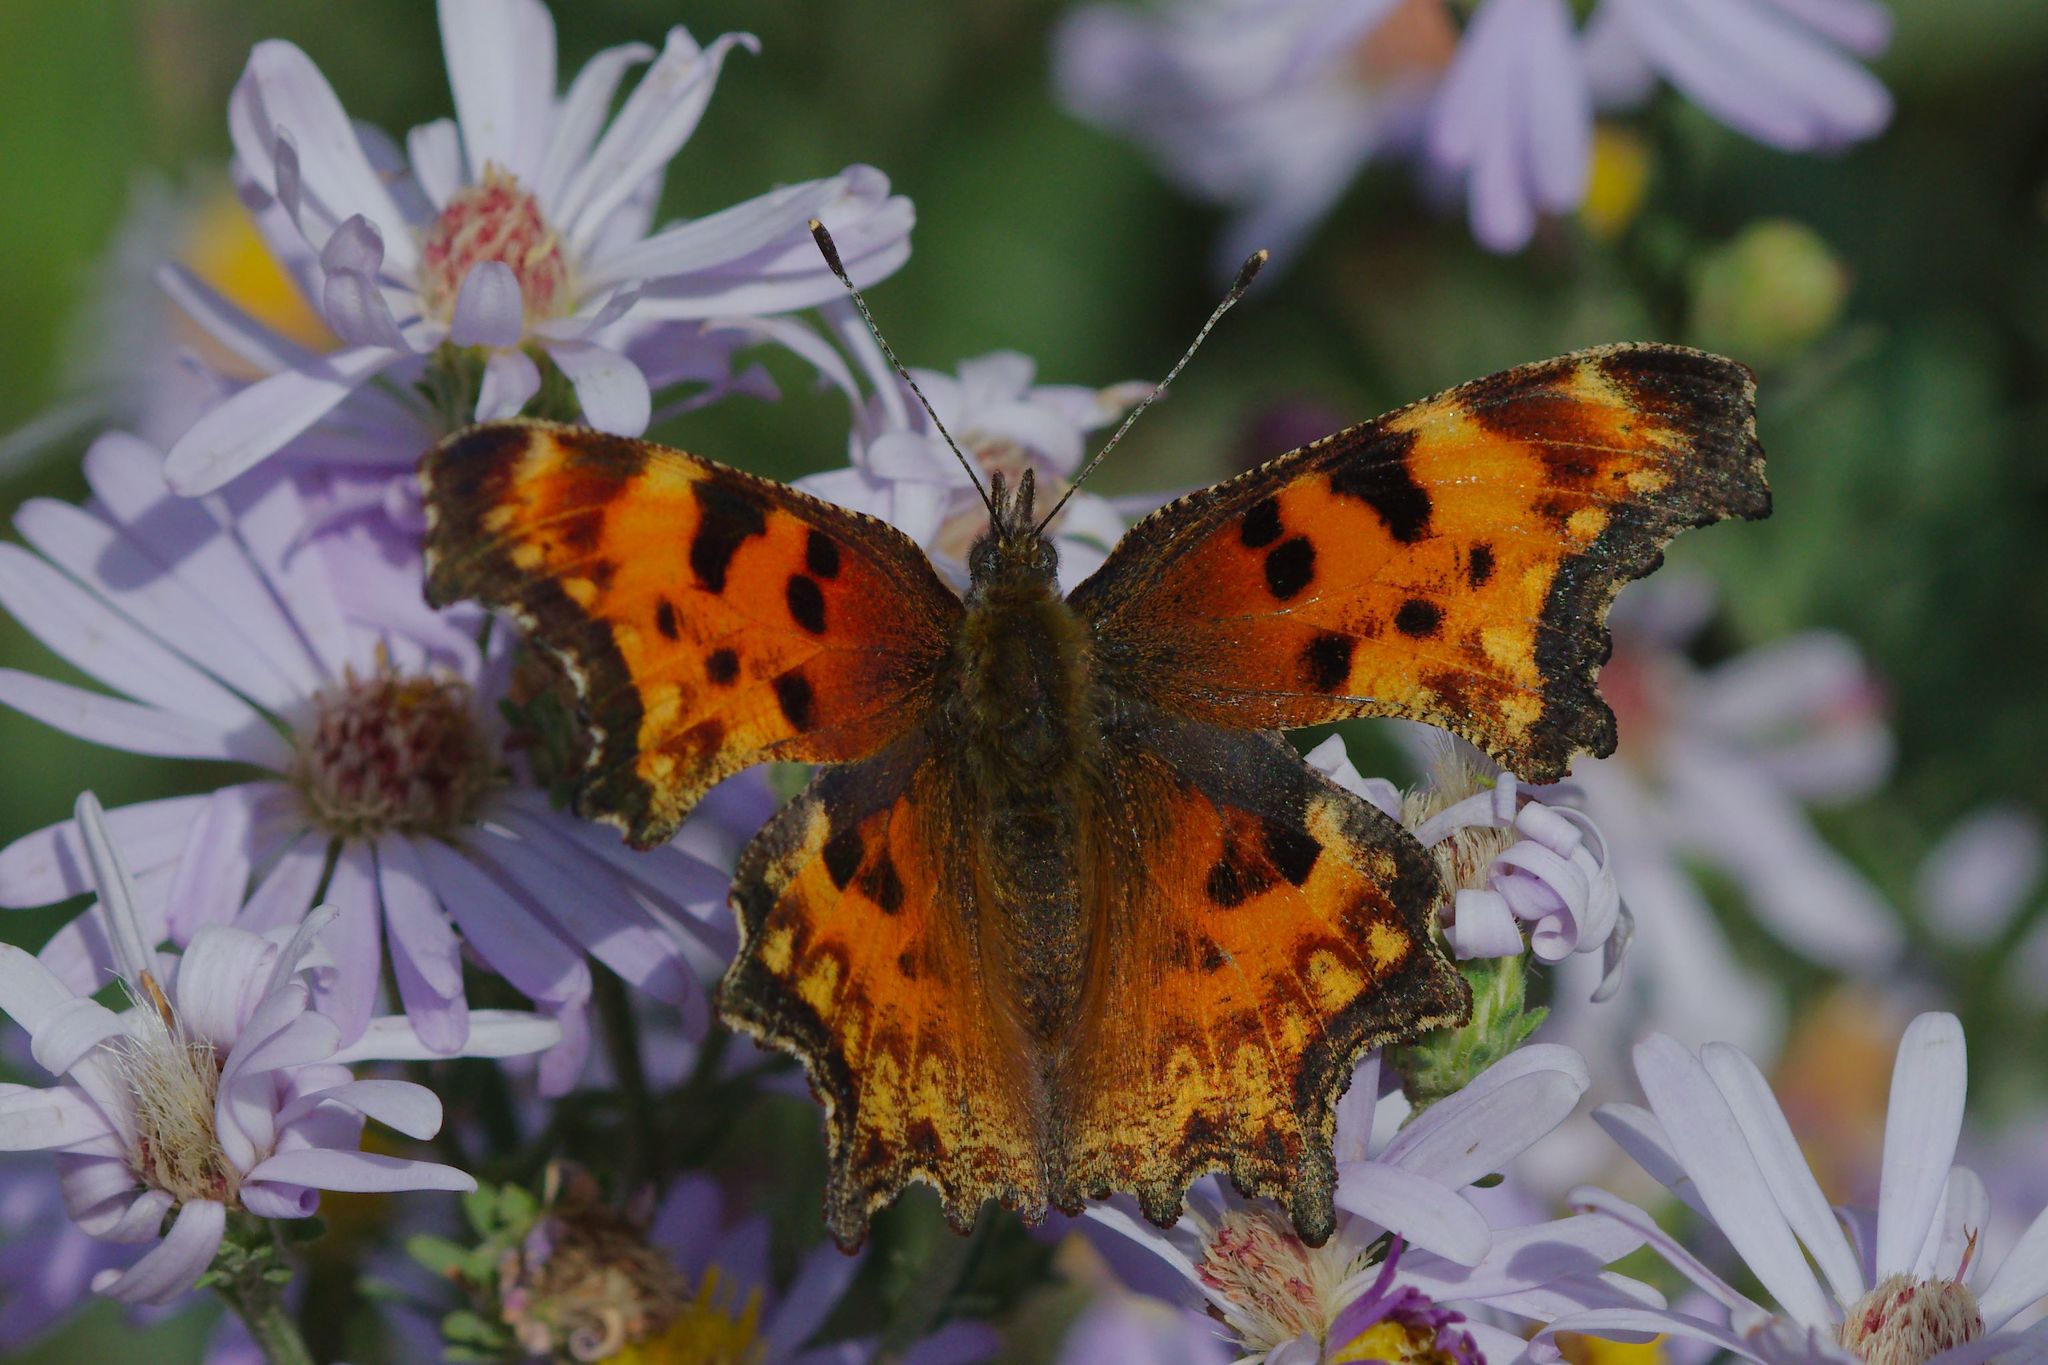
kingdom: Animalia
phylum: Arthropoda
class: Insecta
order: Lepidoptera
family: Nymphalidae
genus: Polygonia
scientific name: Polygonia gracilis
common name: Hoary comma
